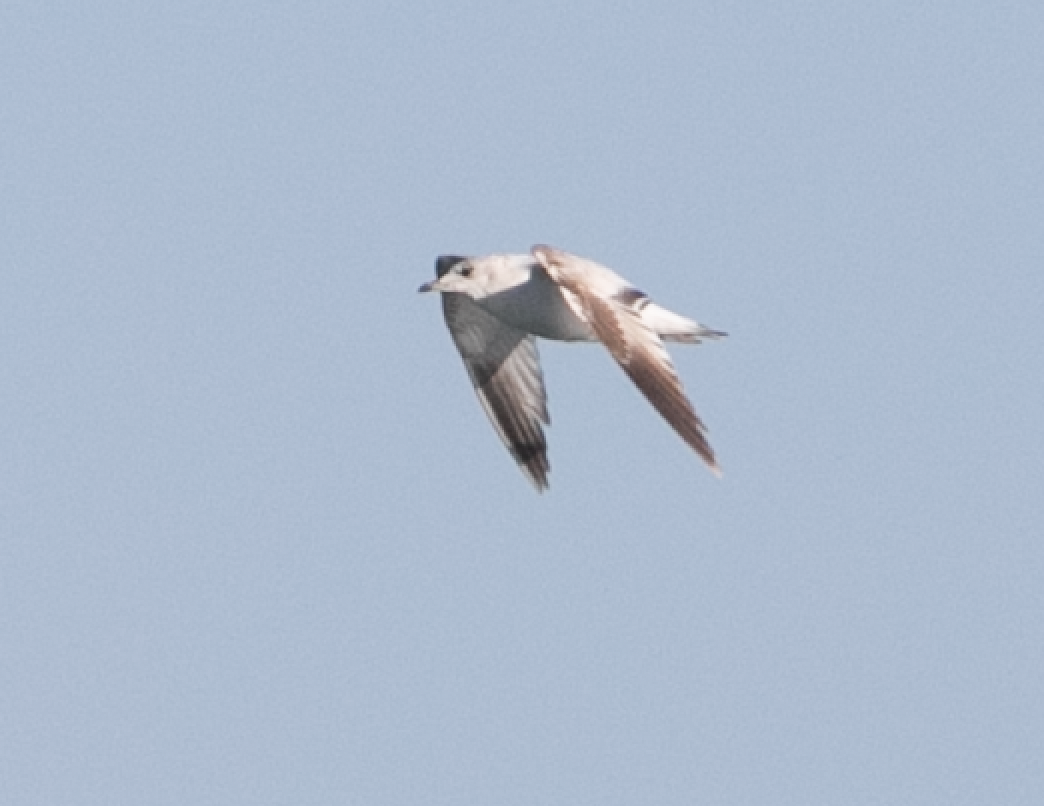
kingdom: Animalia
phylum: Chordata
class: Aves
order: Charadriiformes
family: Laridae
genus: Larus
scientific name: Larus canus
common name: Mew gull
